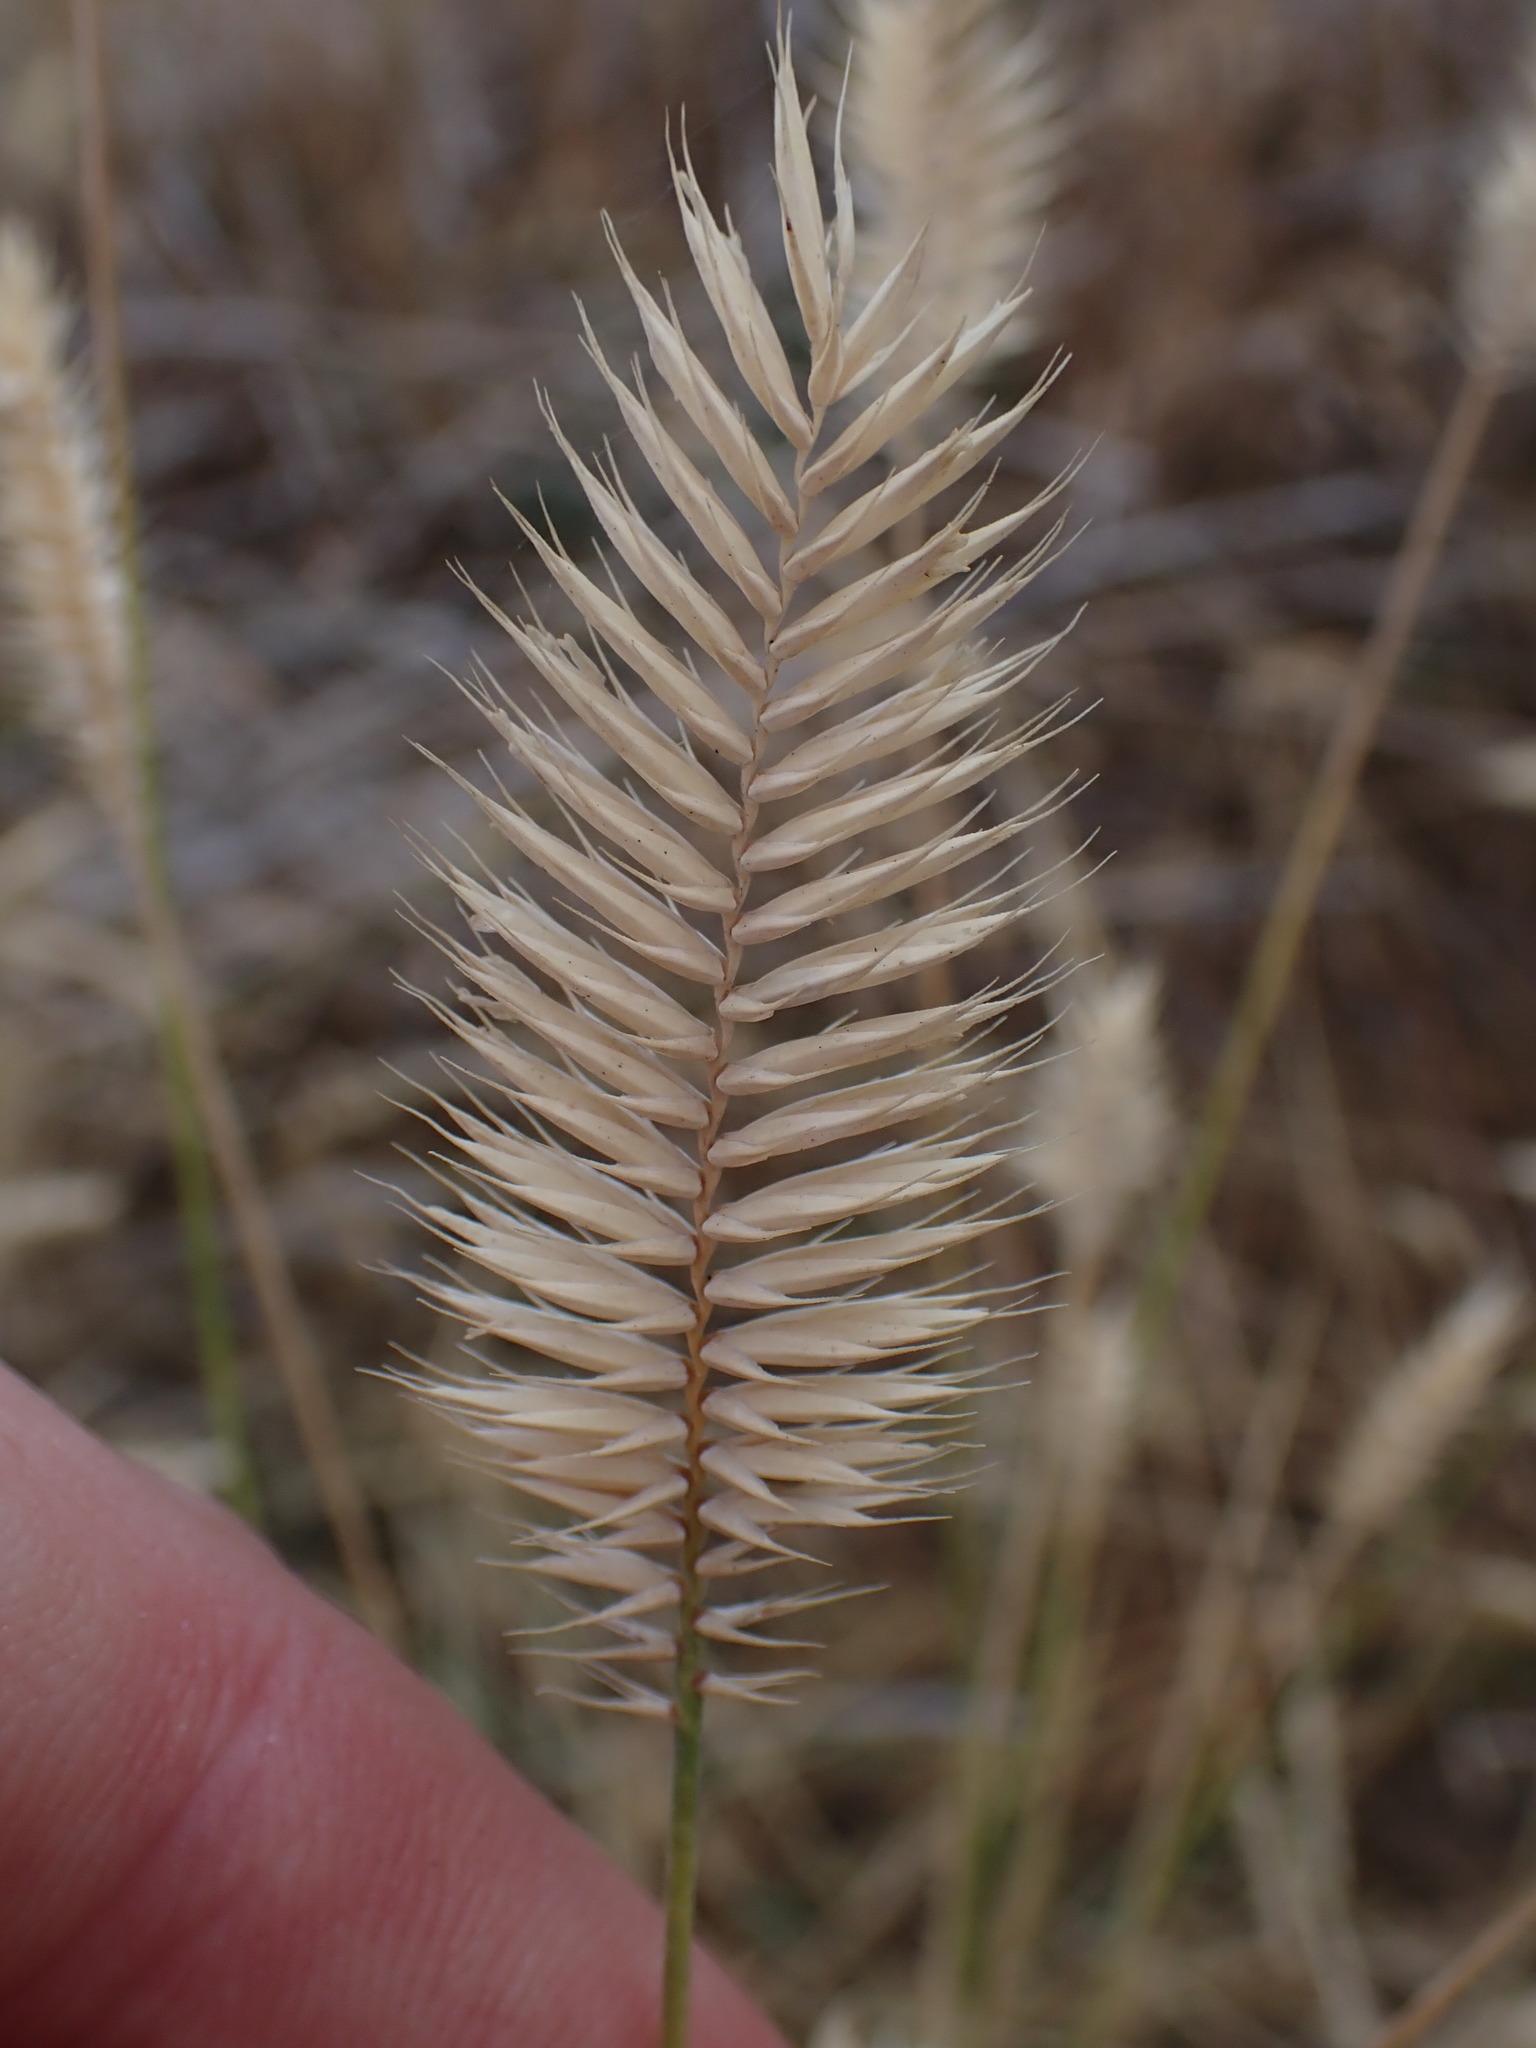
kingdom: Plantae
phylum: Tracheophyta
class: Liliopsida
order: Poales
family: Poaceae
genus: Agropyron
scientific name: Agropyron cristatum
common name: Crested wheatgrass
